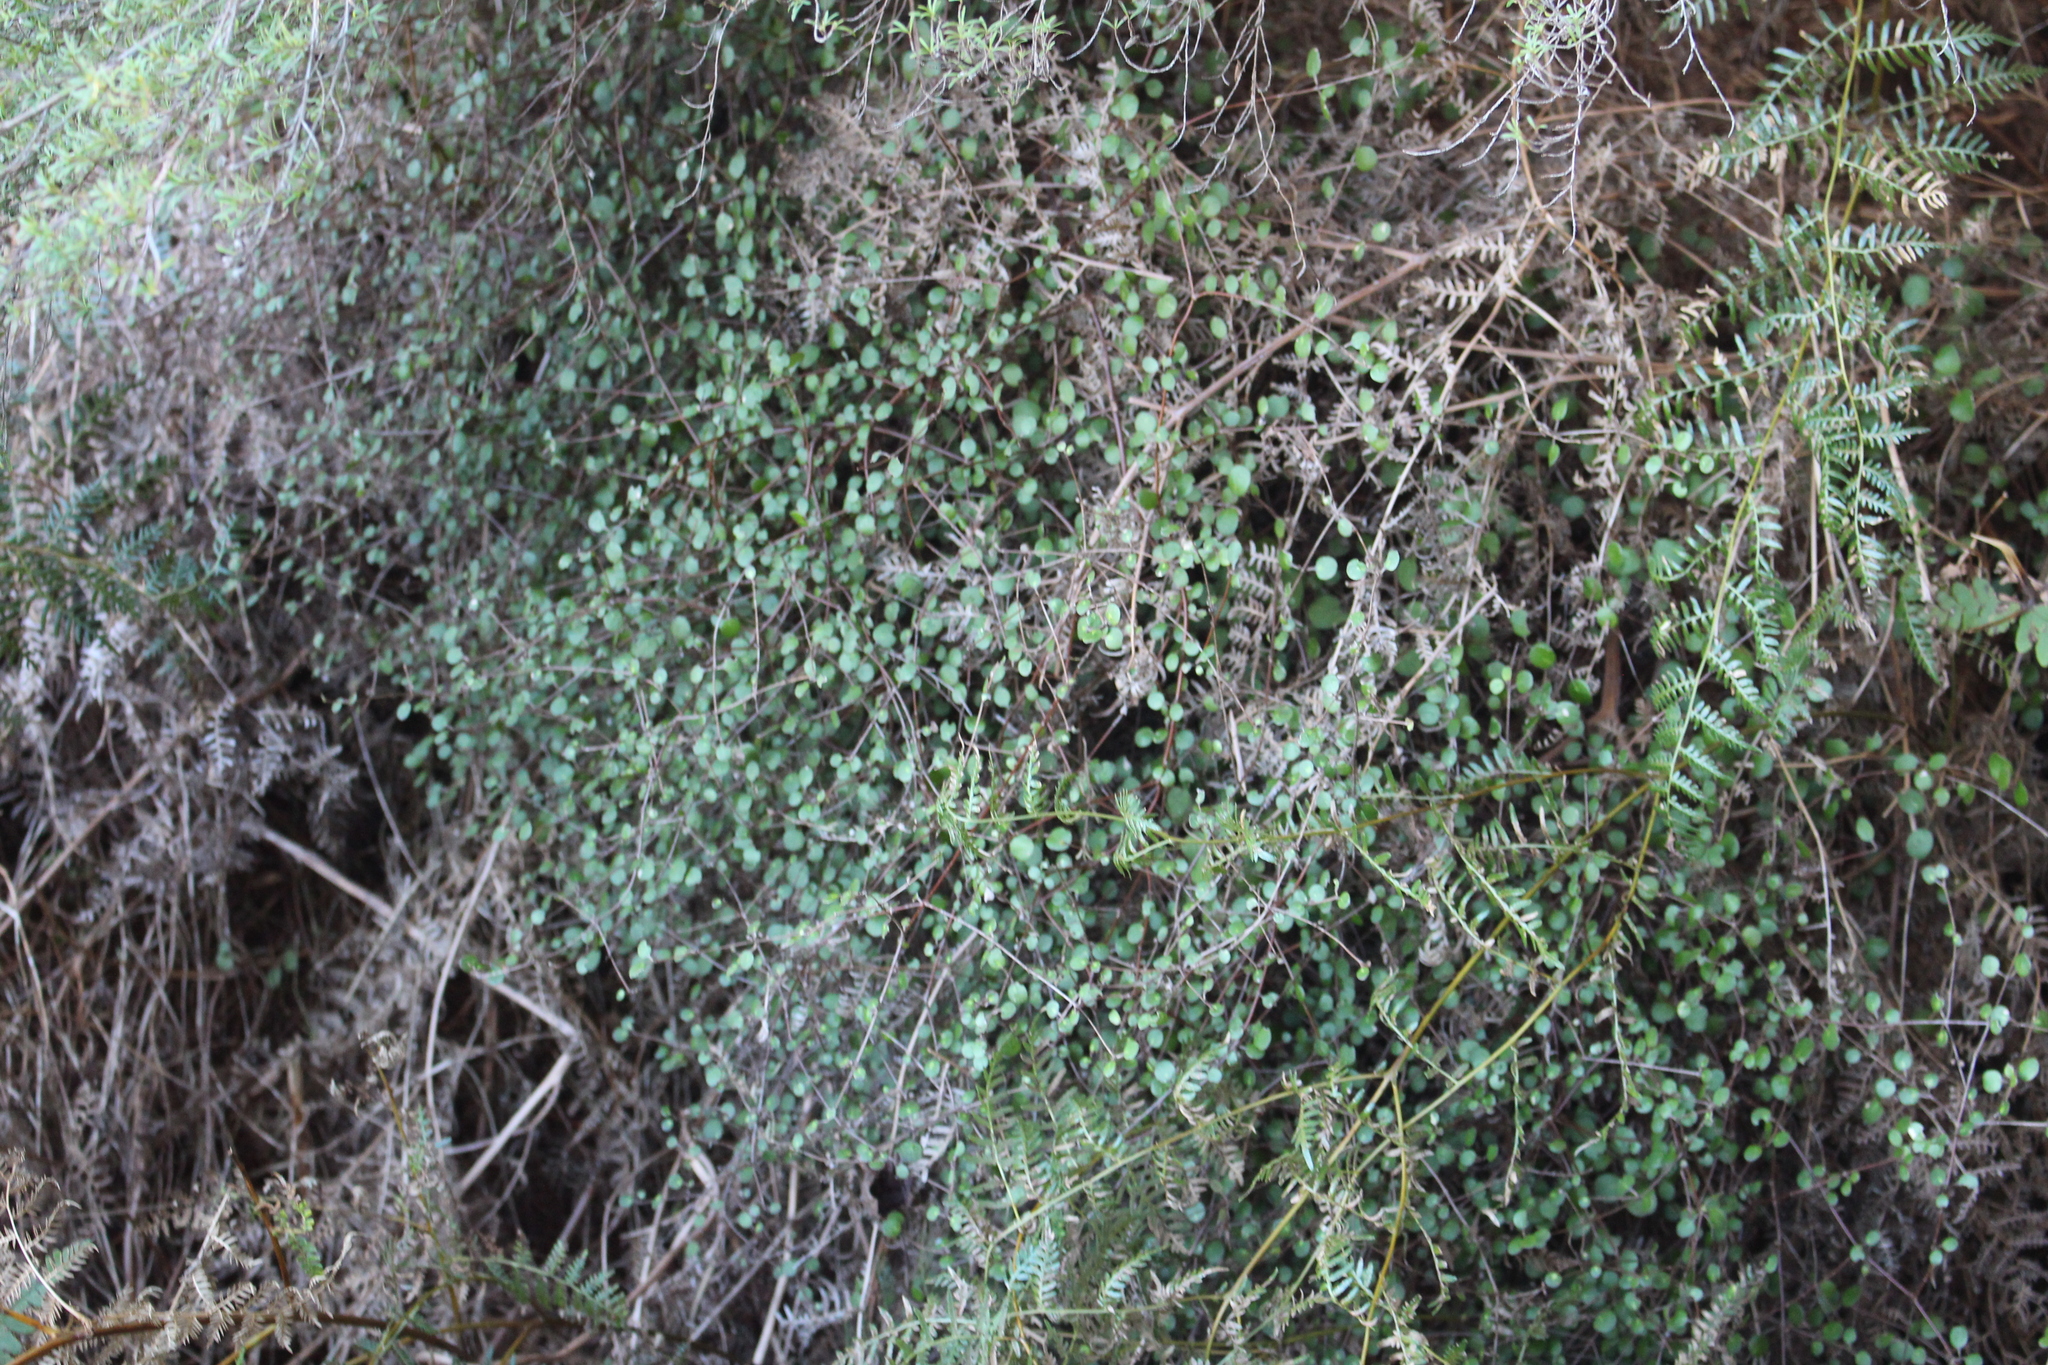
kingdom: Plantae
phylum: Tracheophyta
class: Magnoliopsida
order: Gentianales
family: Rubiaceae
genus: Coprosma
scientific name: Coprosma crassifolia
